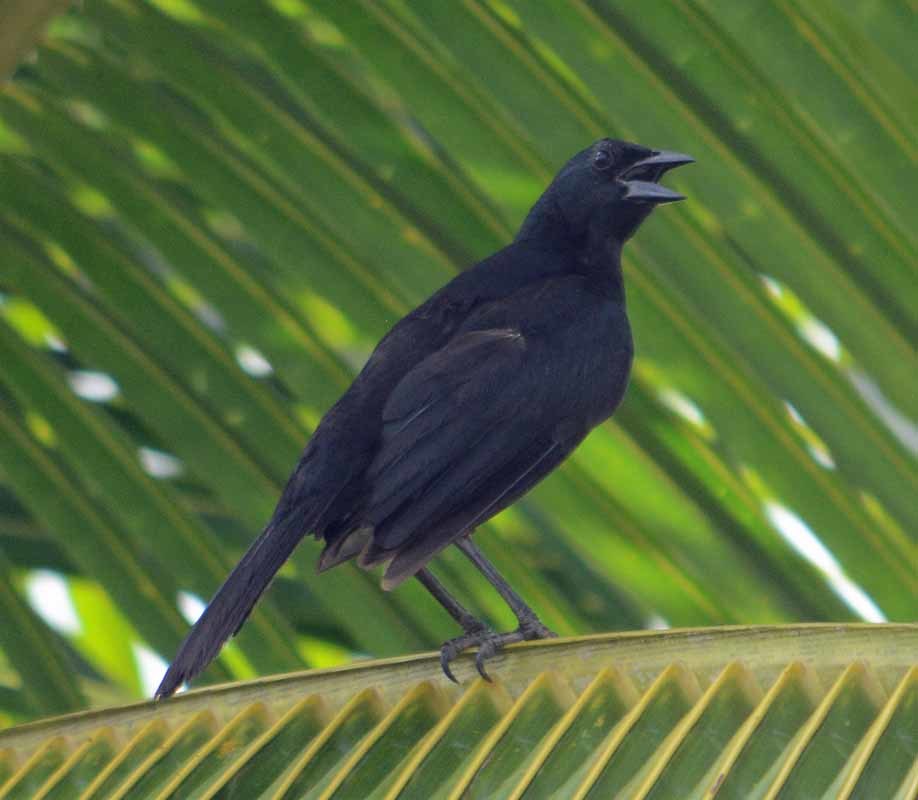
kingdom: Animalia
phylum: Chordata
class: Aves
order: Passeriformes
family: Icteridae
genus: Dives
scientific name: Dives dives
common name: Melodious blackbird
